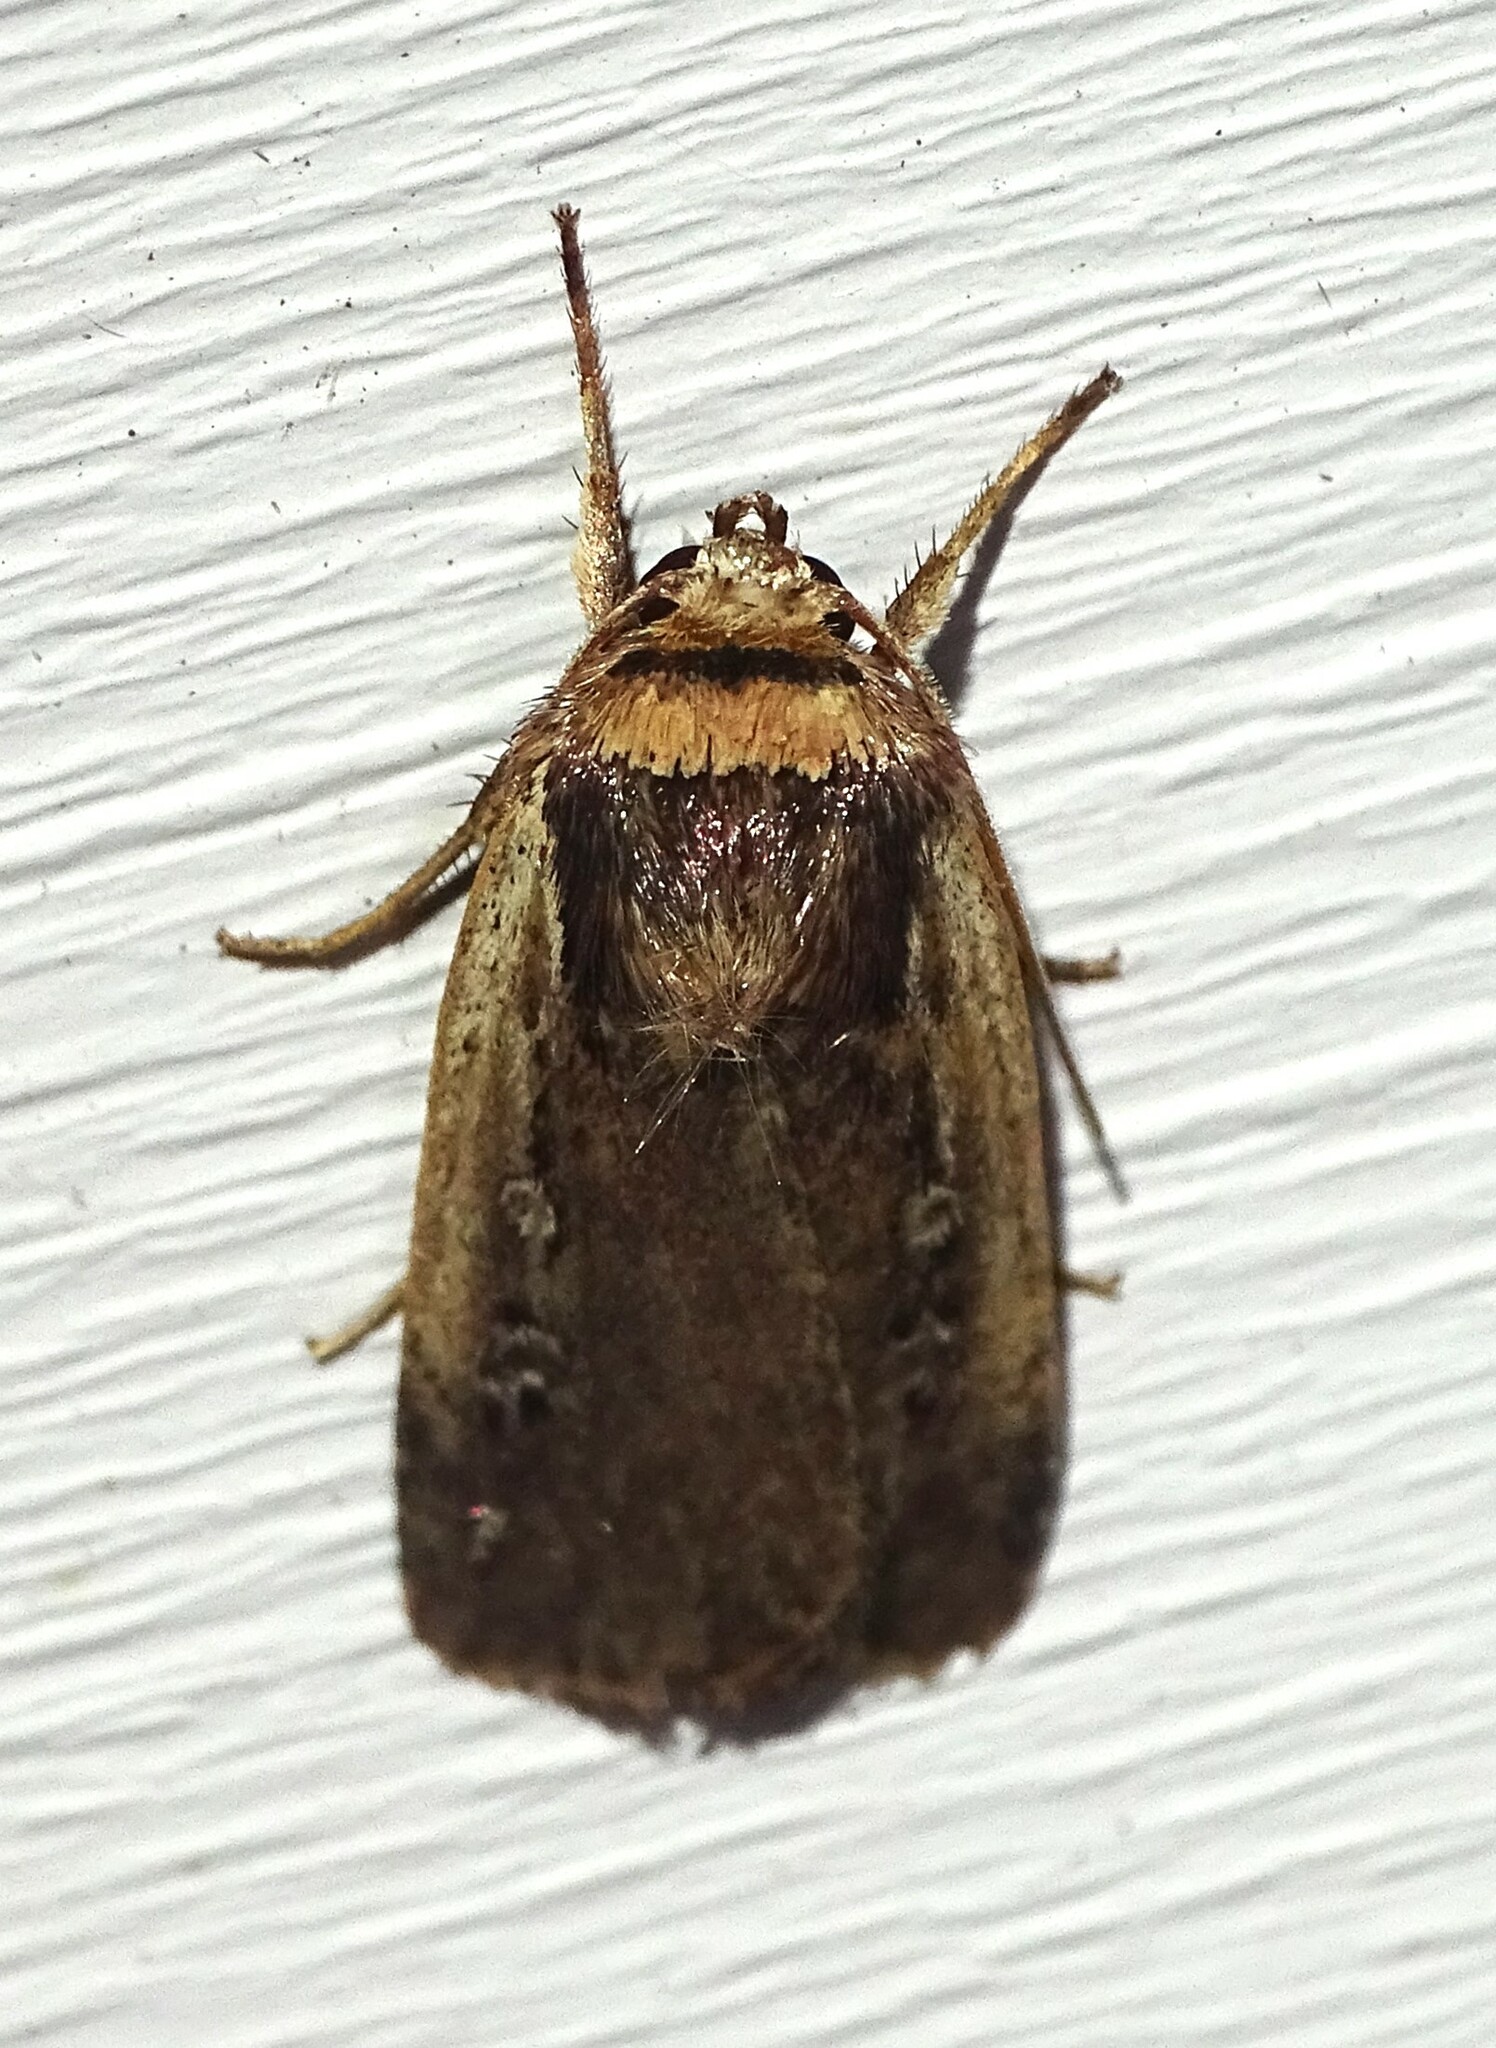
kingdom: Animalia
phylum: Arthropoda
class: Insecta
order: Lepidoptera
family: Noctuidae
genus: Ochropleura
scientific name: Ochropleura implecta
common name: Flame-shouldered dart
